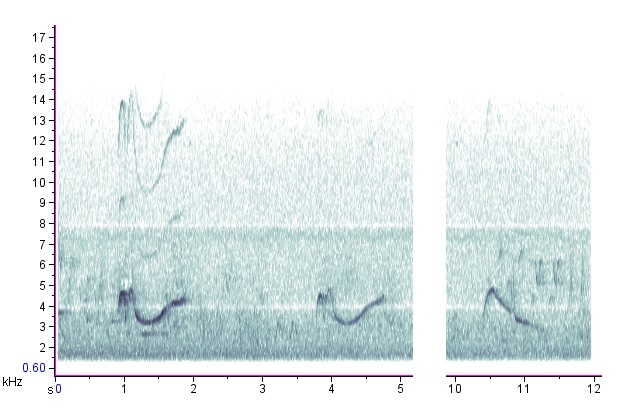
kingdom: Animalia
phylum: Chordata
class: Aves
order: Passeriformes
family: Tyrannidae
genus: Contopus
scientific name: Contopus virens
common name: Eastern wood-pewee
